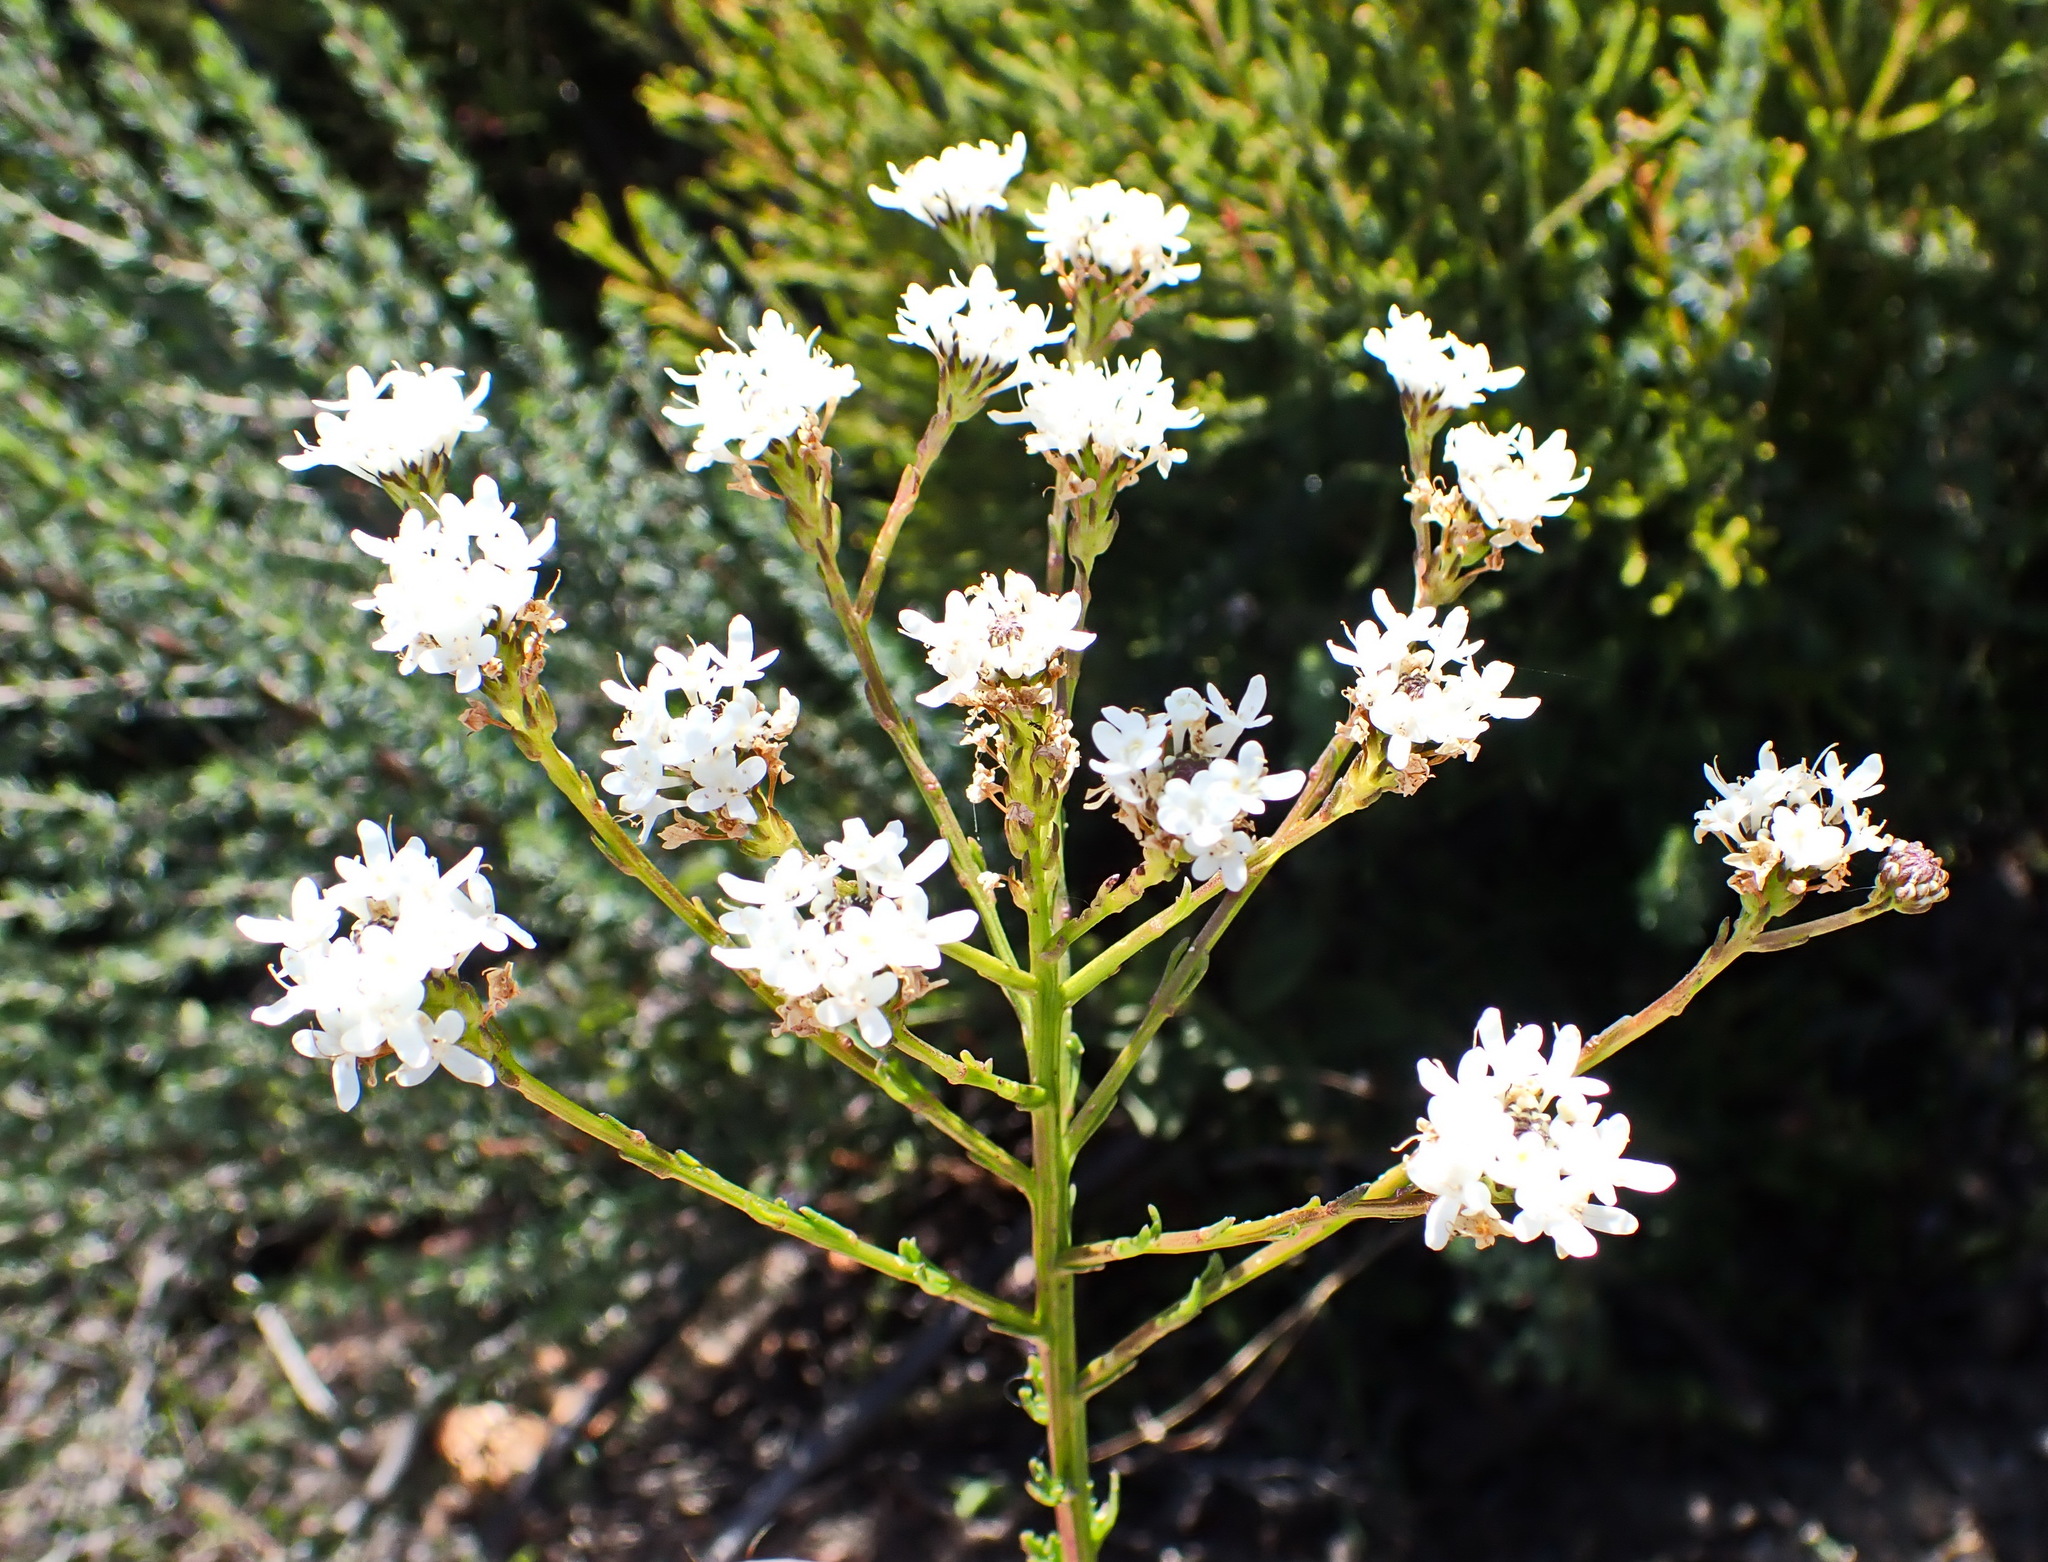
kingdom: Plantae
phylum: Tracheophyta
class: Magnoliopsida
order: Lamiales
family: Scrophulariaceae
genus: Pseudoselago
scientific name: Pseudoselago outeniquensis
